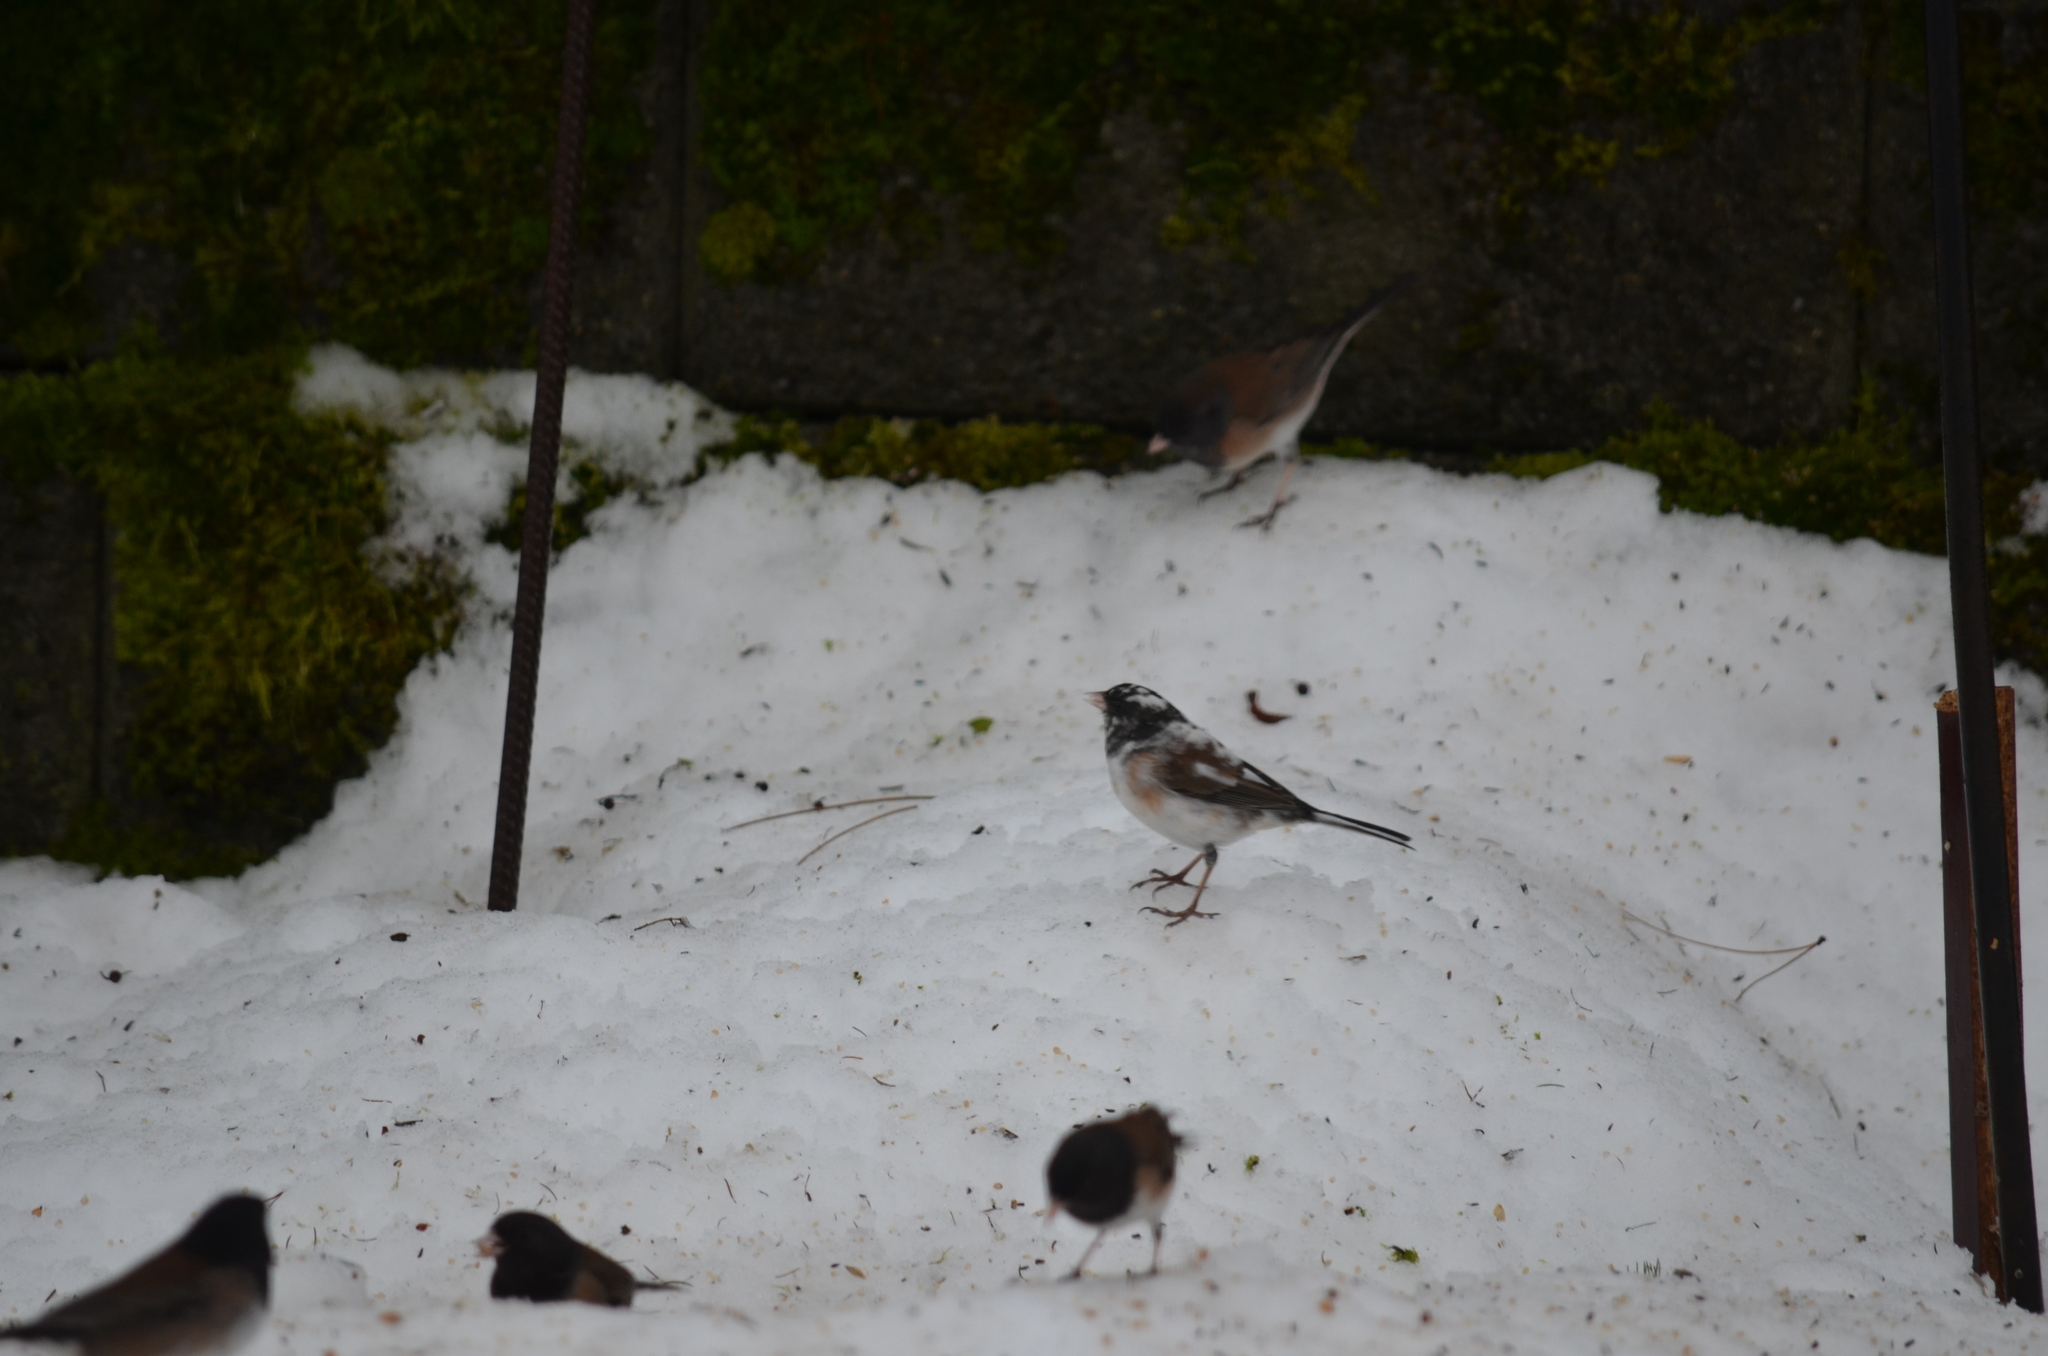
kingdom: Animalia
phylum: Chordata
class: Aves
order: Passeriformes
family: Passerellidae
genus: Junco
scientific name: Junco hyemalis
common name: Dark-eyed junco
